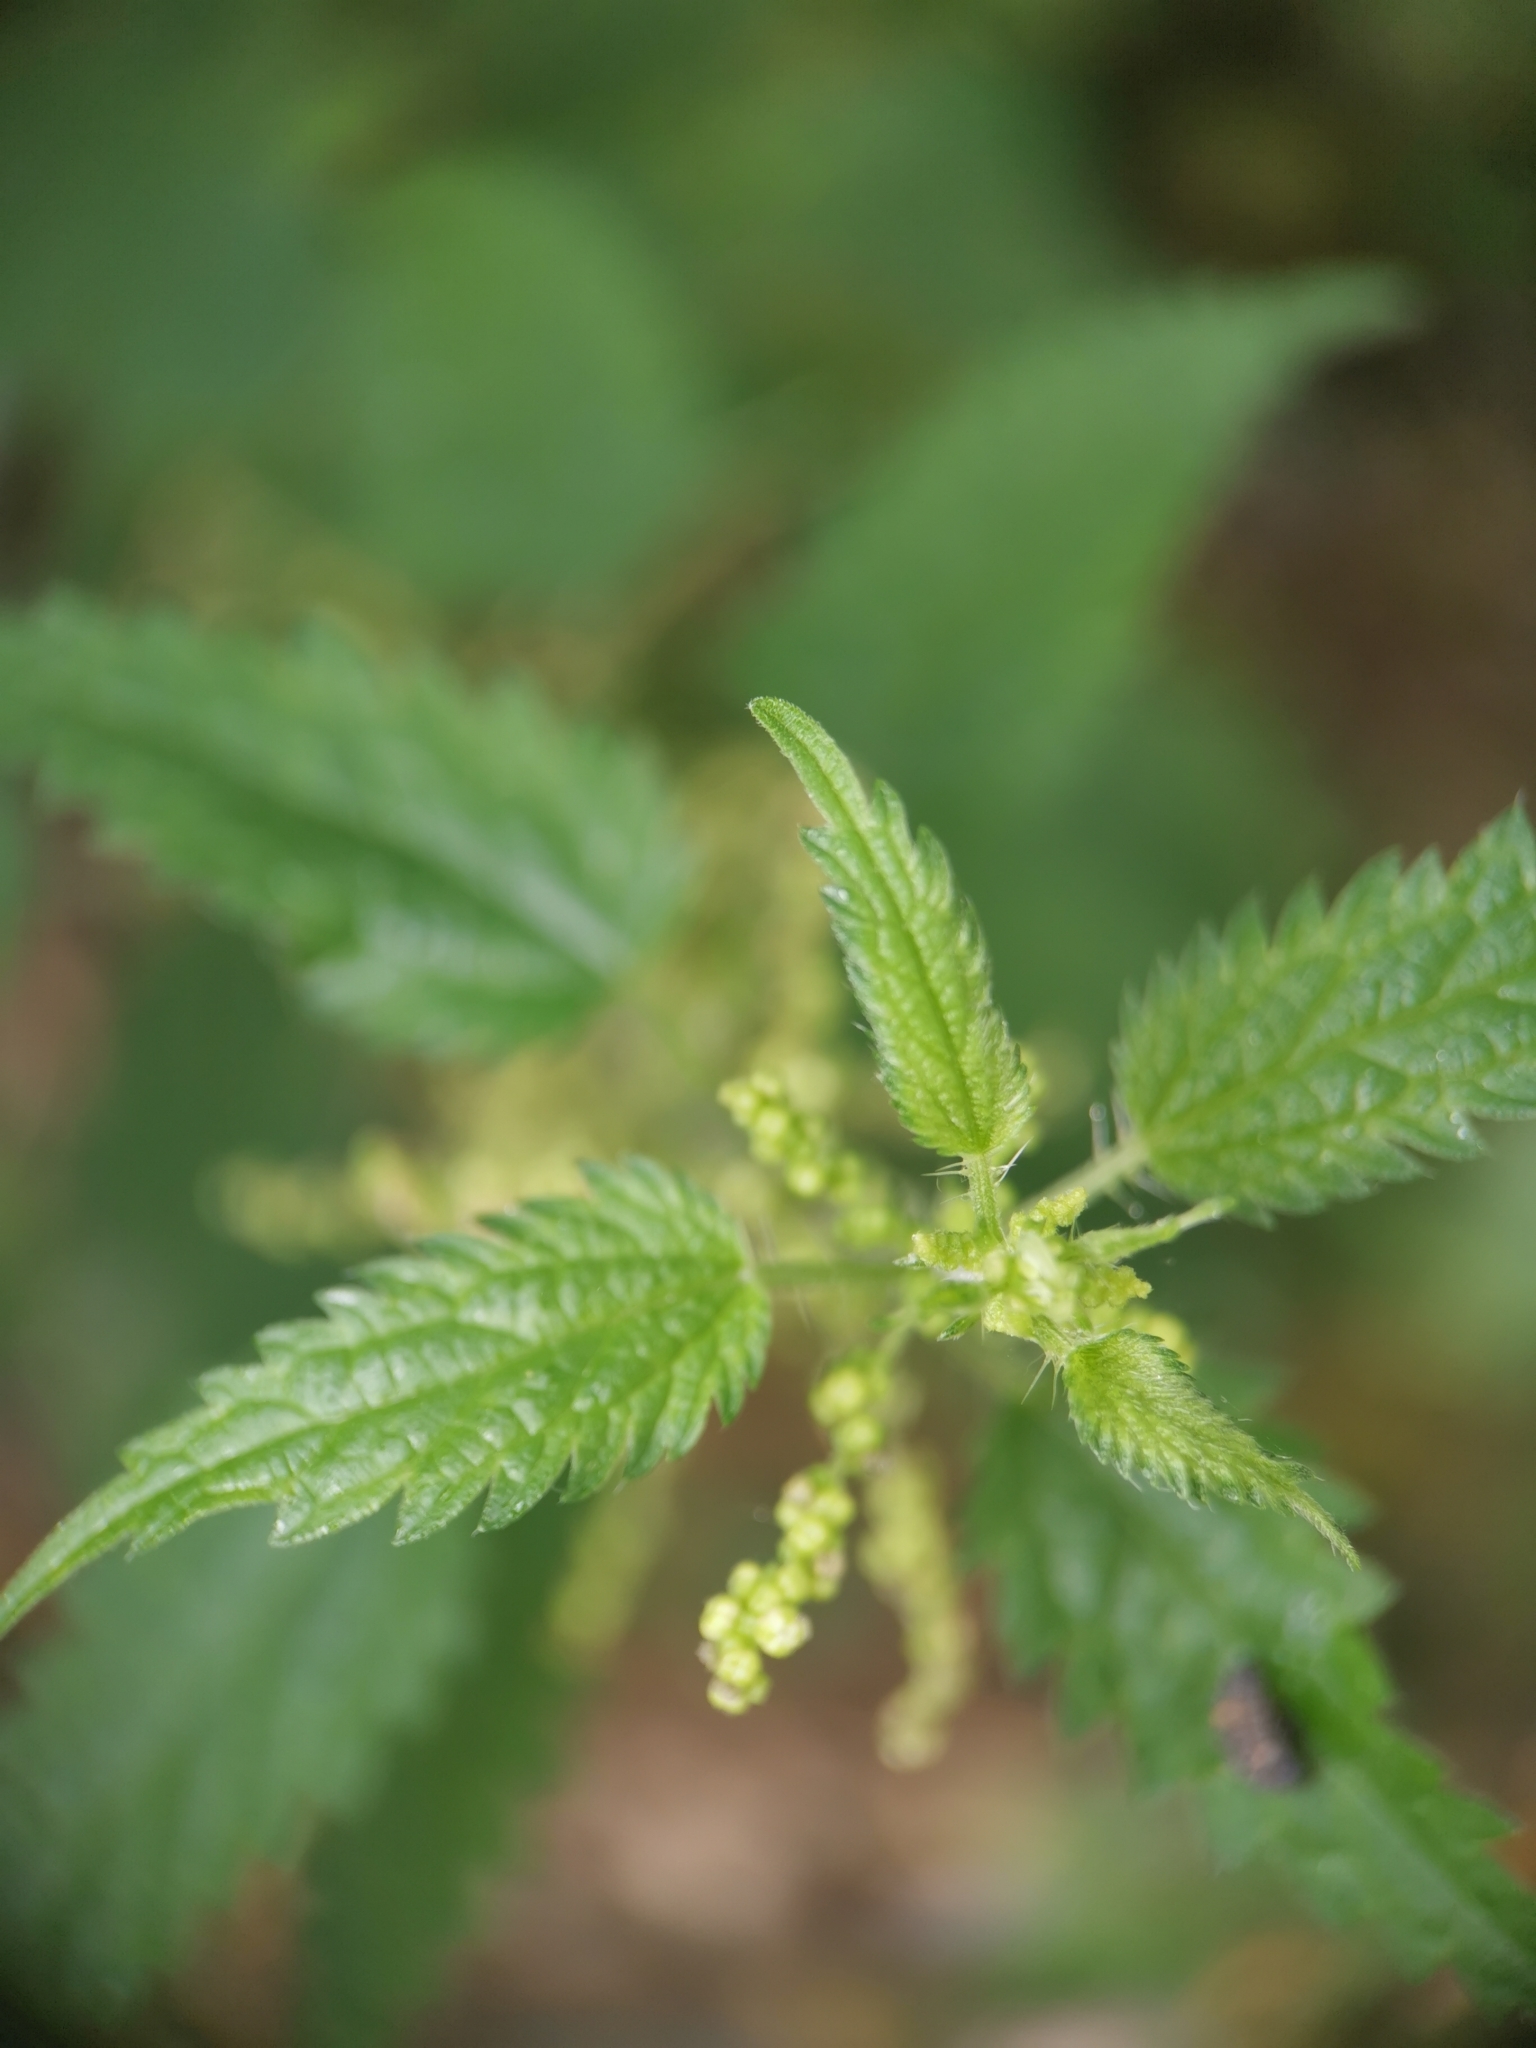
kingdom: Plantae
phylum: Tracheophyta
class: Magnoliopsida
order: Rosales
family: Urticaceae
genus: Urtica
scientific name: Urtica dioica
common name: Common nettle
